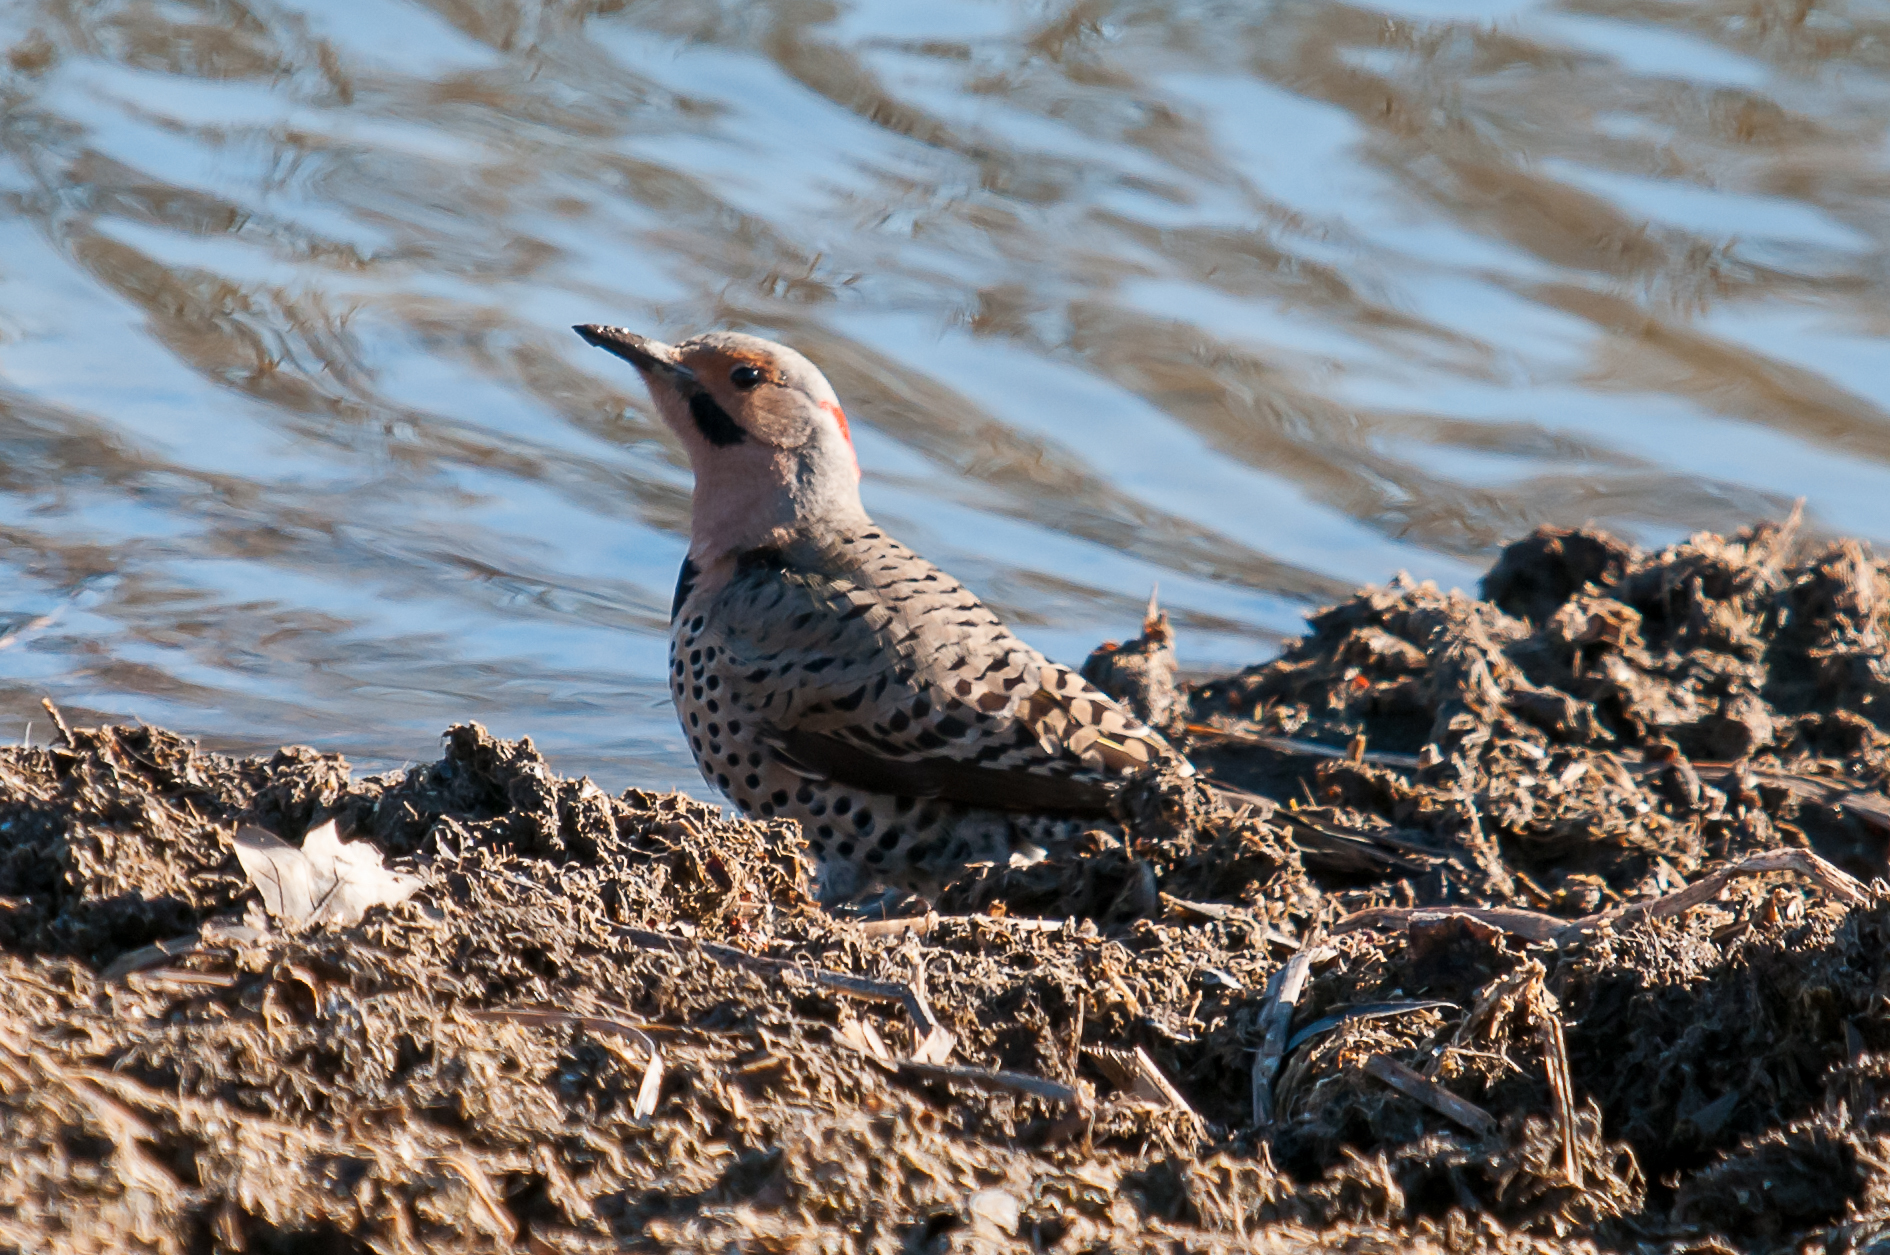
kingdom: Animalia
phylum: Chordata
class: Aves
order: Piciformes
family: Picidae
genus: Colaptes
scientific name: Colaptes auratus
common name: Northern flicker
